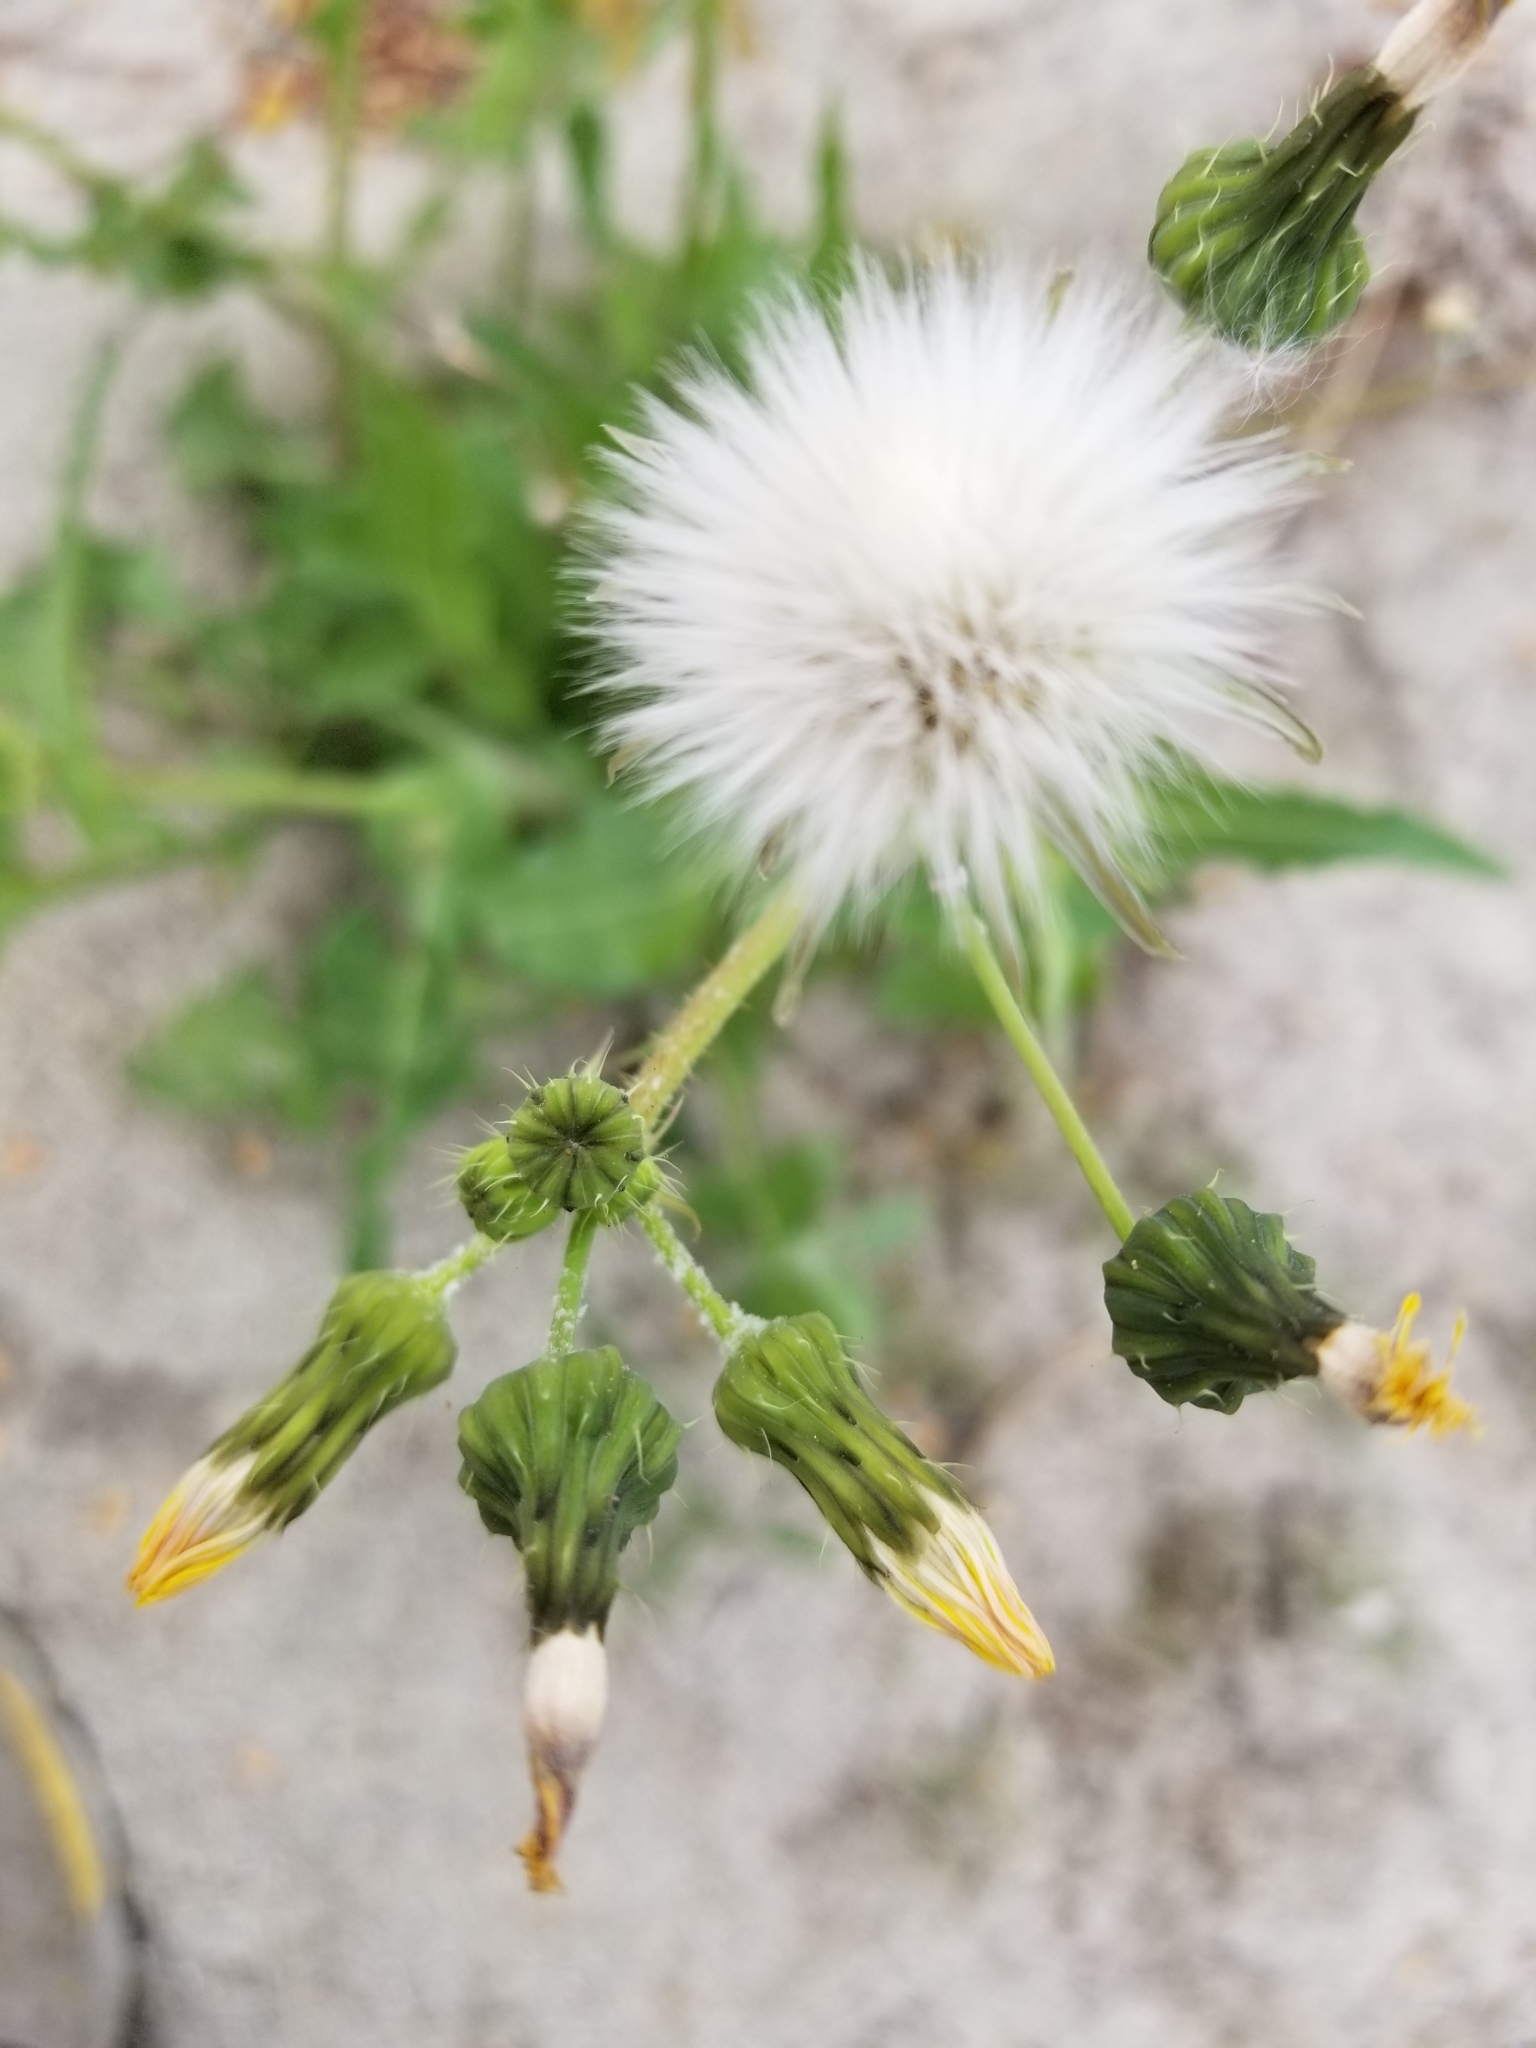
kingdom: Plantae
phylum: Tracheophyta
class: Magnoliopsida
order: Asterales
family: Asteraceae
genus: Sonchus
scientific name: Sonchus oleraceus
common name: Common sowthistle
